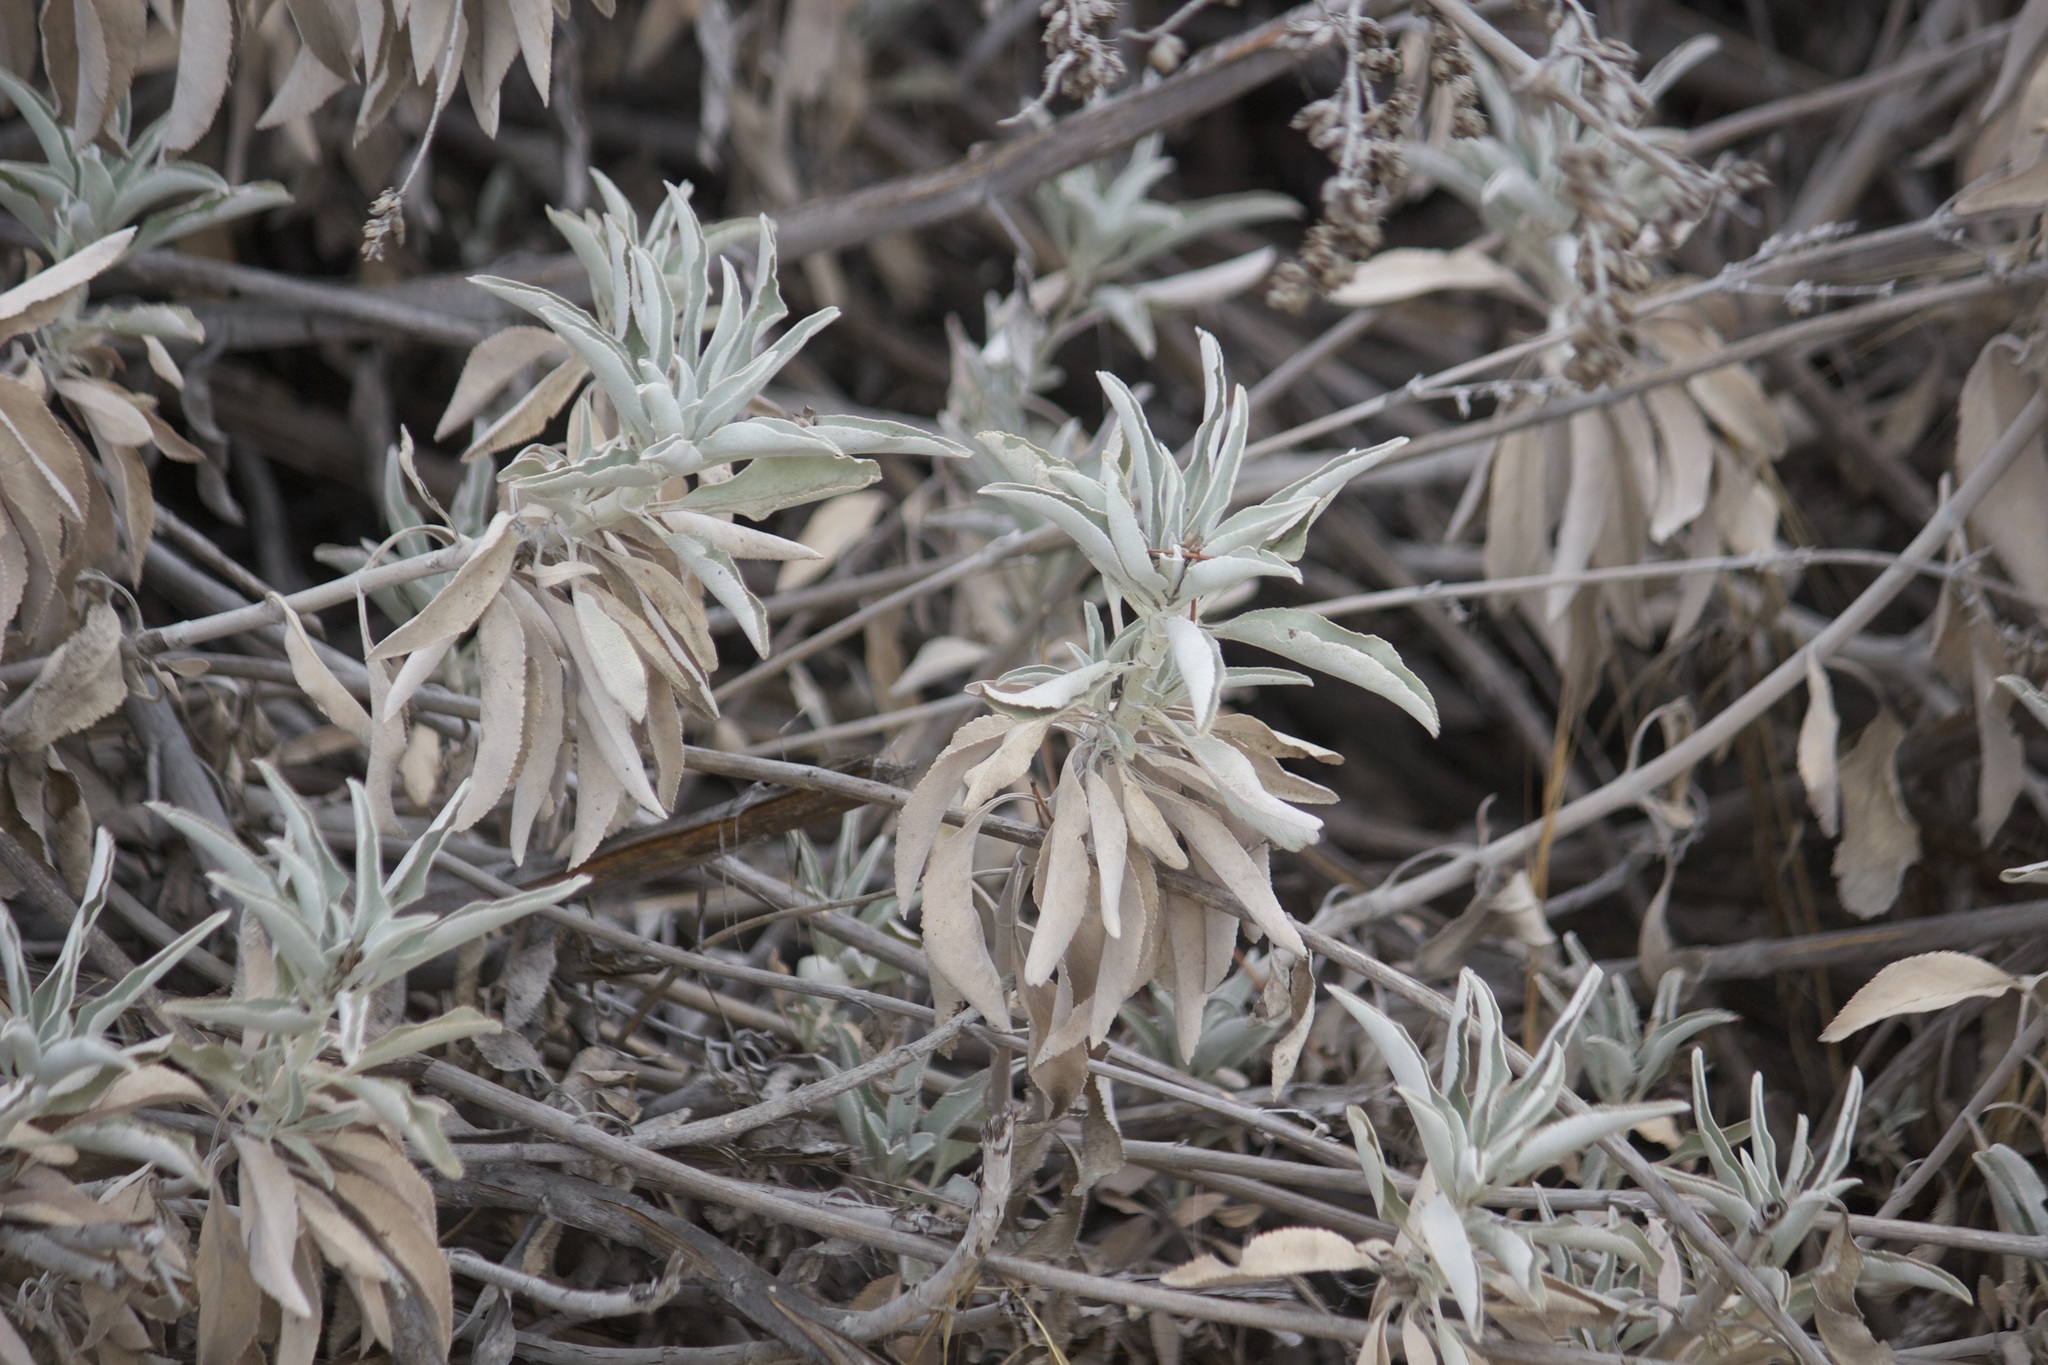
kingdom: Plantae
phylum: Tracheophyta
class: Magnoliopsida
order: Lamiales
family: Lamiaceae
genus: Salvia
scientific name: Salvia apiana
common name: White sage
